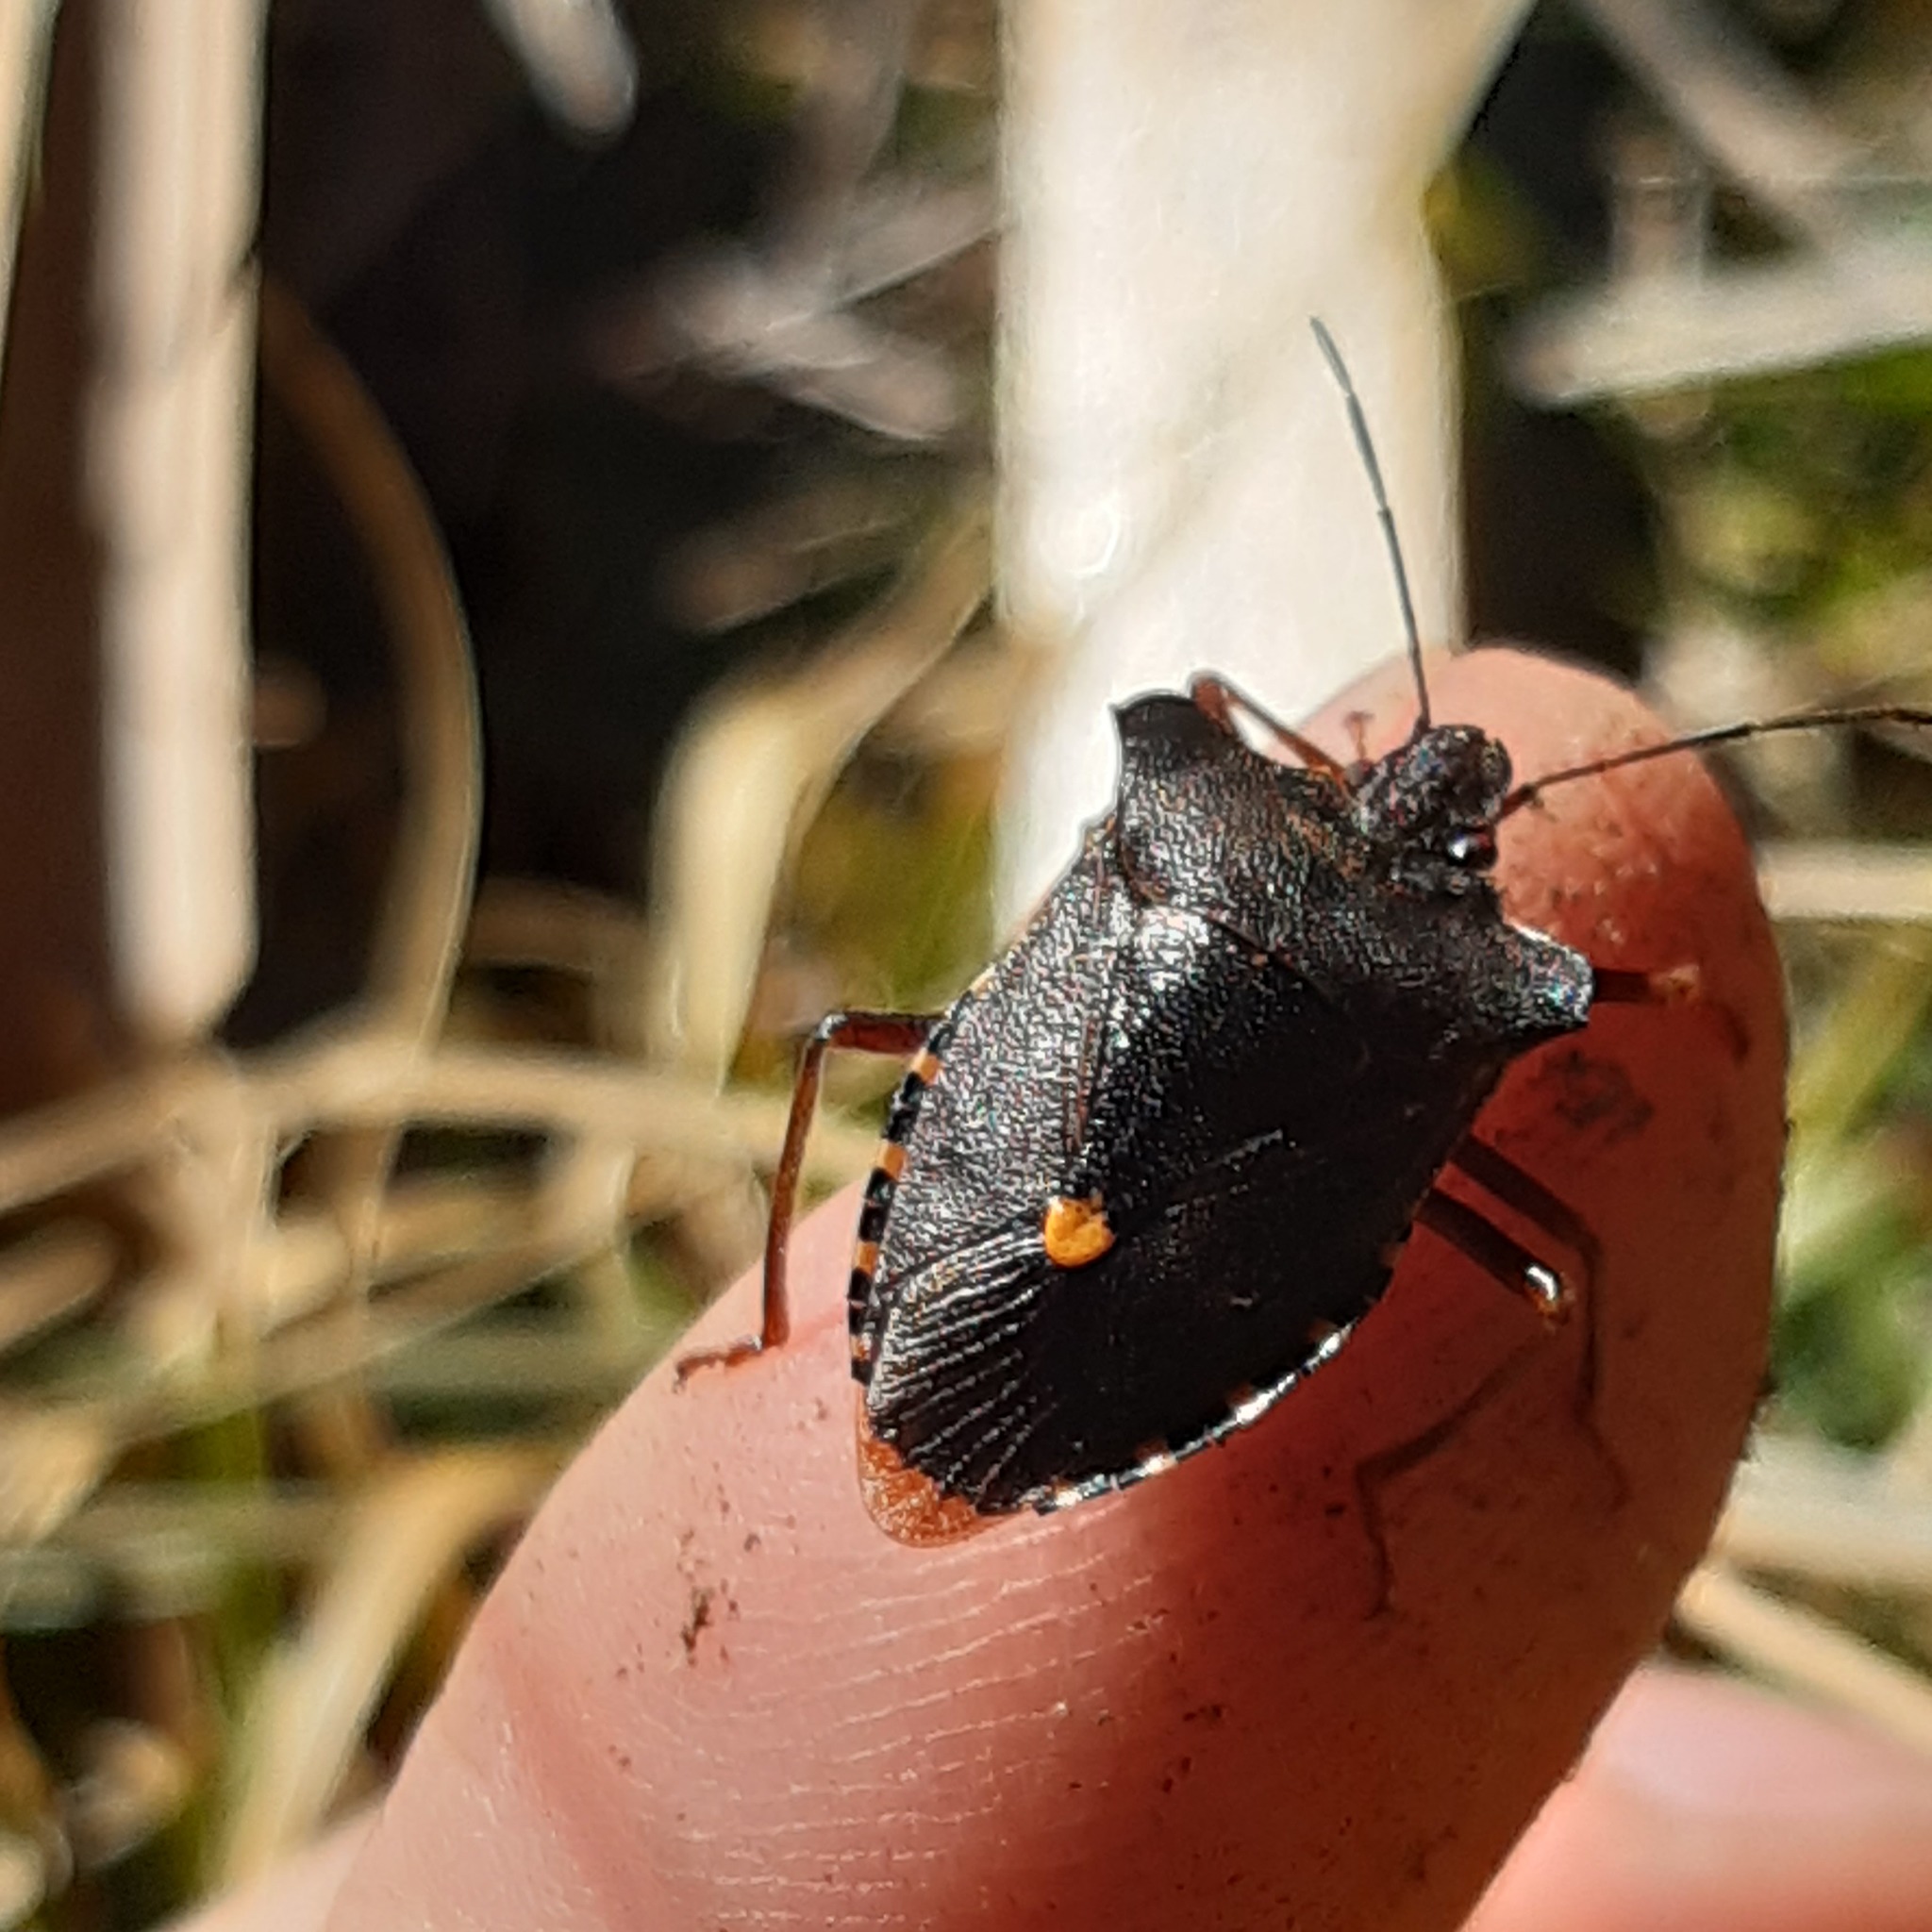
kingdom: Animalia
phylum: Arthropoda
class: Insecta
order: Hemiptera
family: Pentatomidae
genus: Pentatoma
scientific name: Pentatoma rufipes
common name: Forest bug
